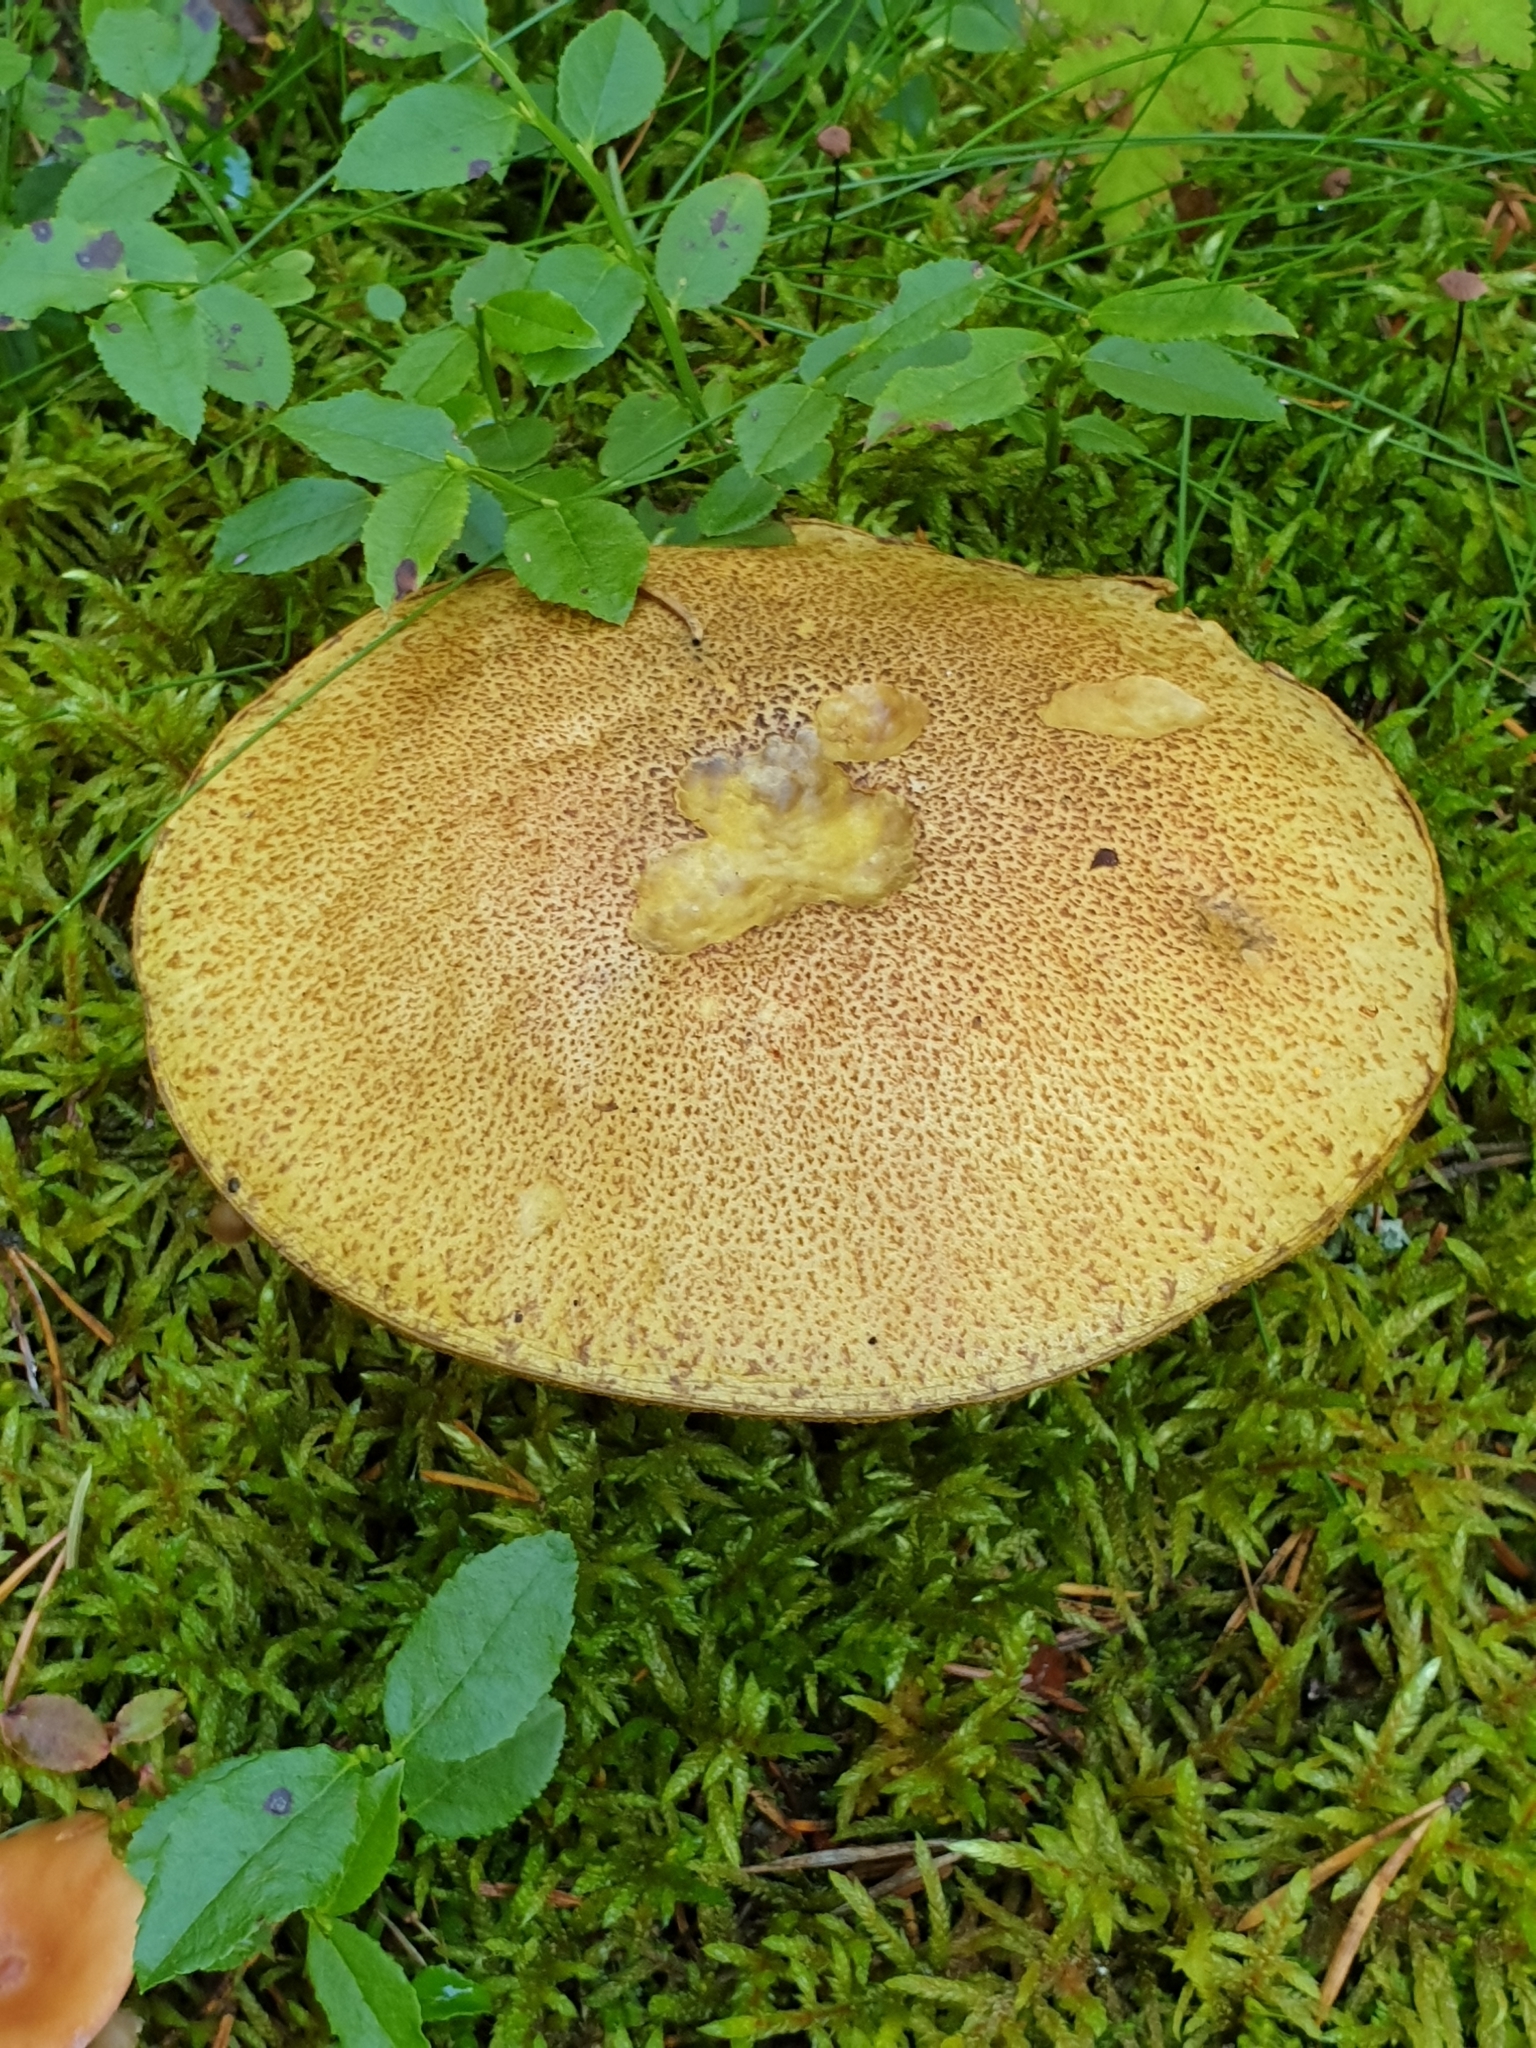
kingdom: Fungi
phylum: Basidiomycota
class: Agaricomycetes
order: Boletales
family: Suillaceae
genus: Suillus
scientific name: Suillus variegatus
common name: Velvet bolete
